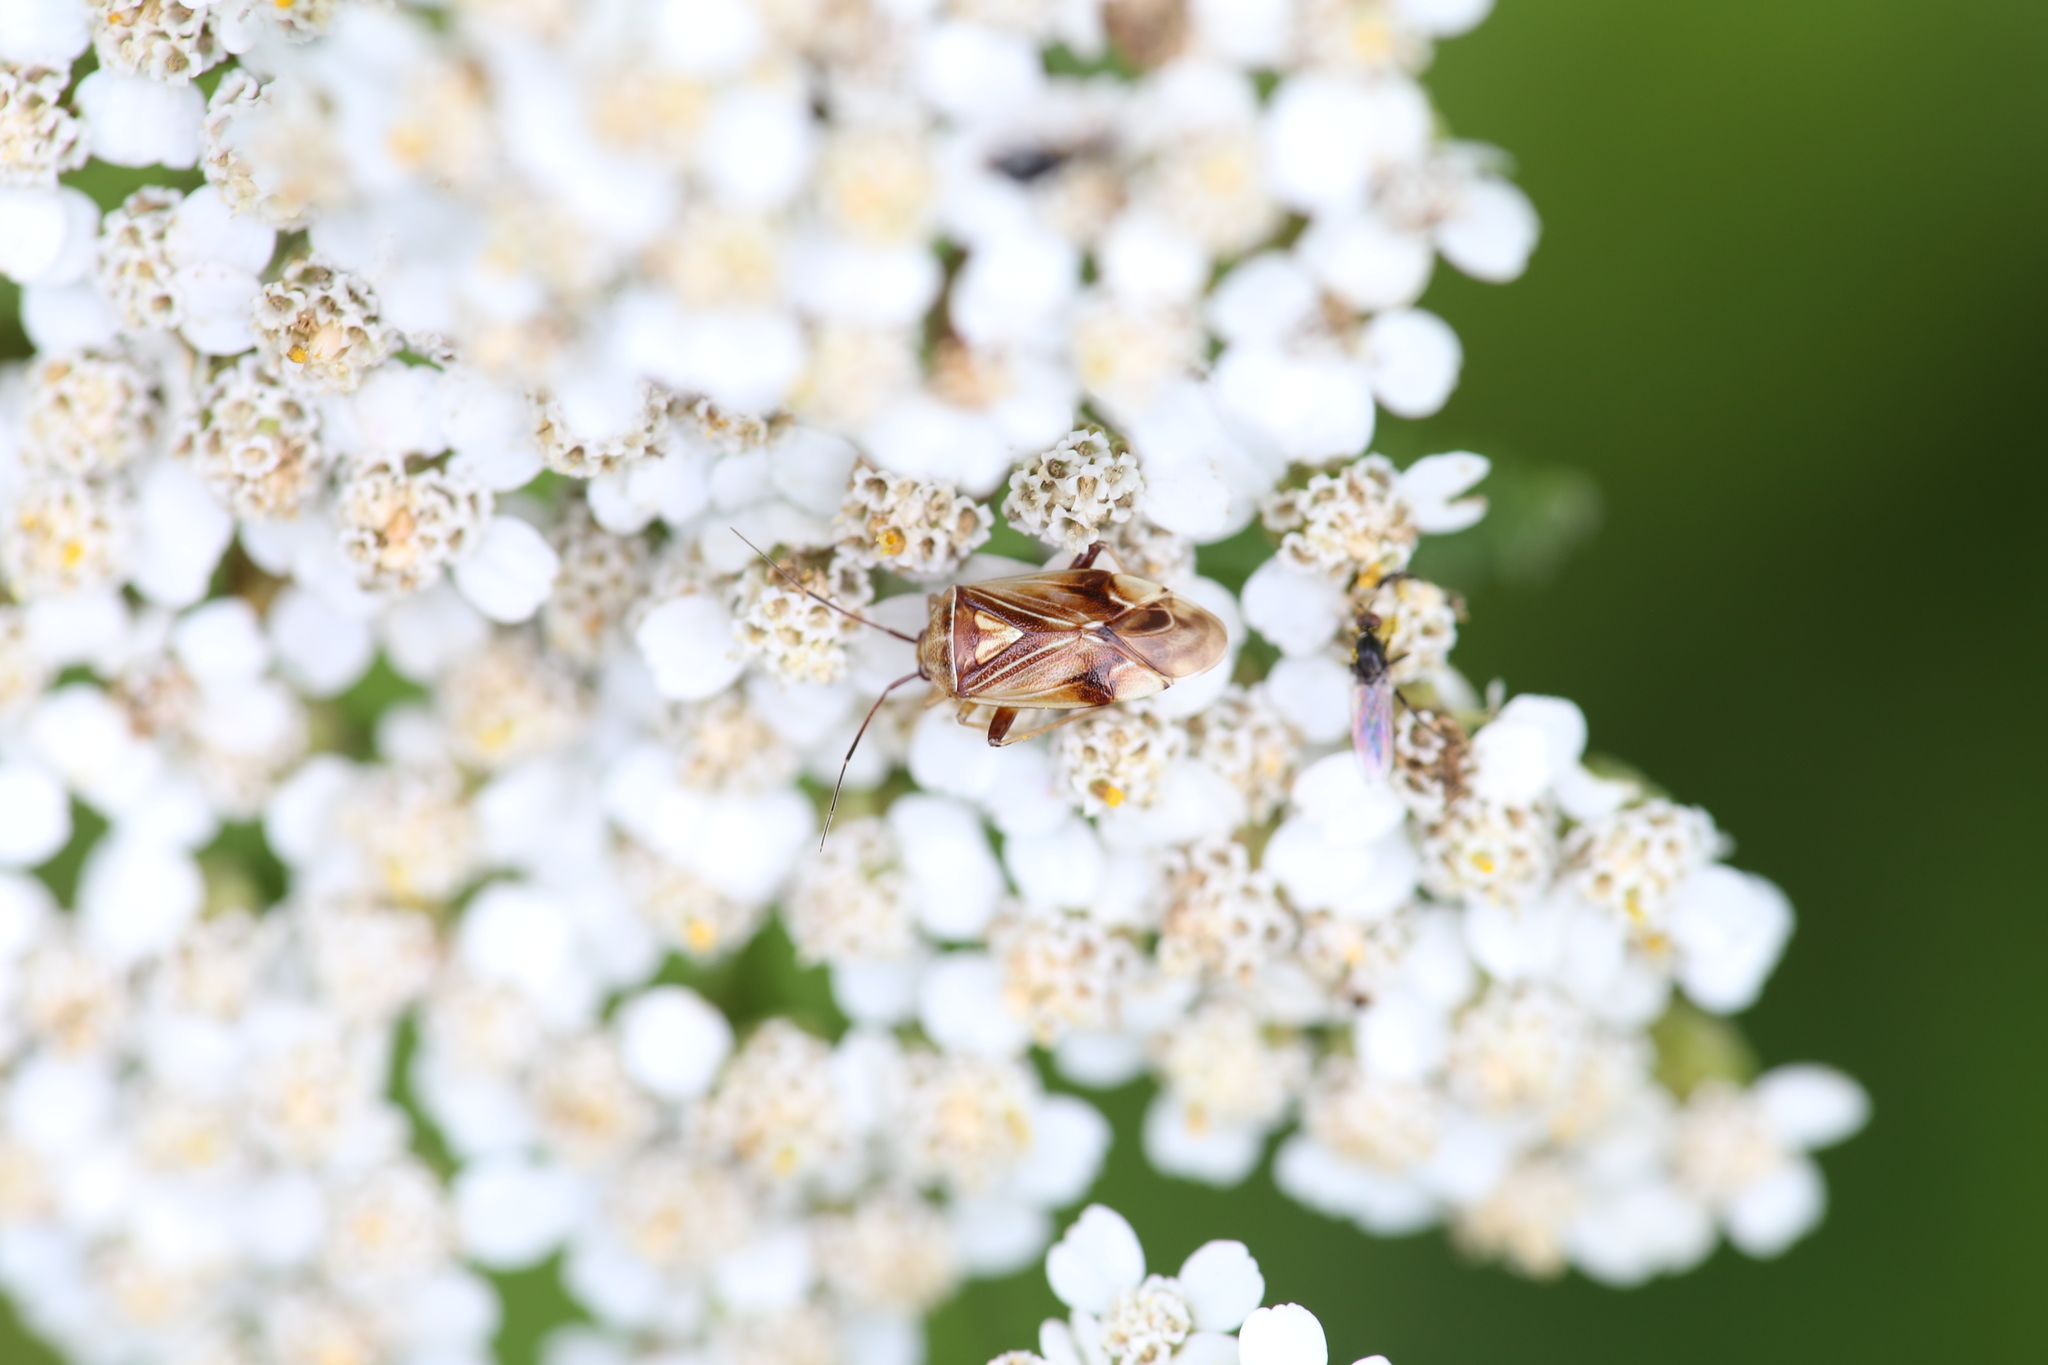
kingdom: Animalia
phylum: Arthropoda
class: Insecta
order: Hemiptera
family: Miridae
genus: Lygus
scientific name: Lygus lineolaris
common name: North american tarnished plant bug
